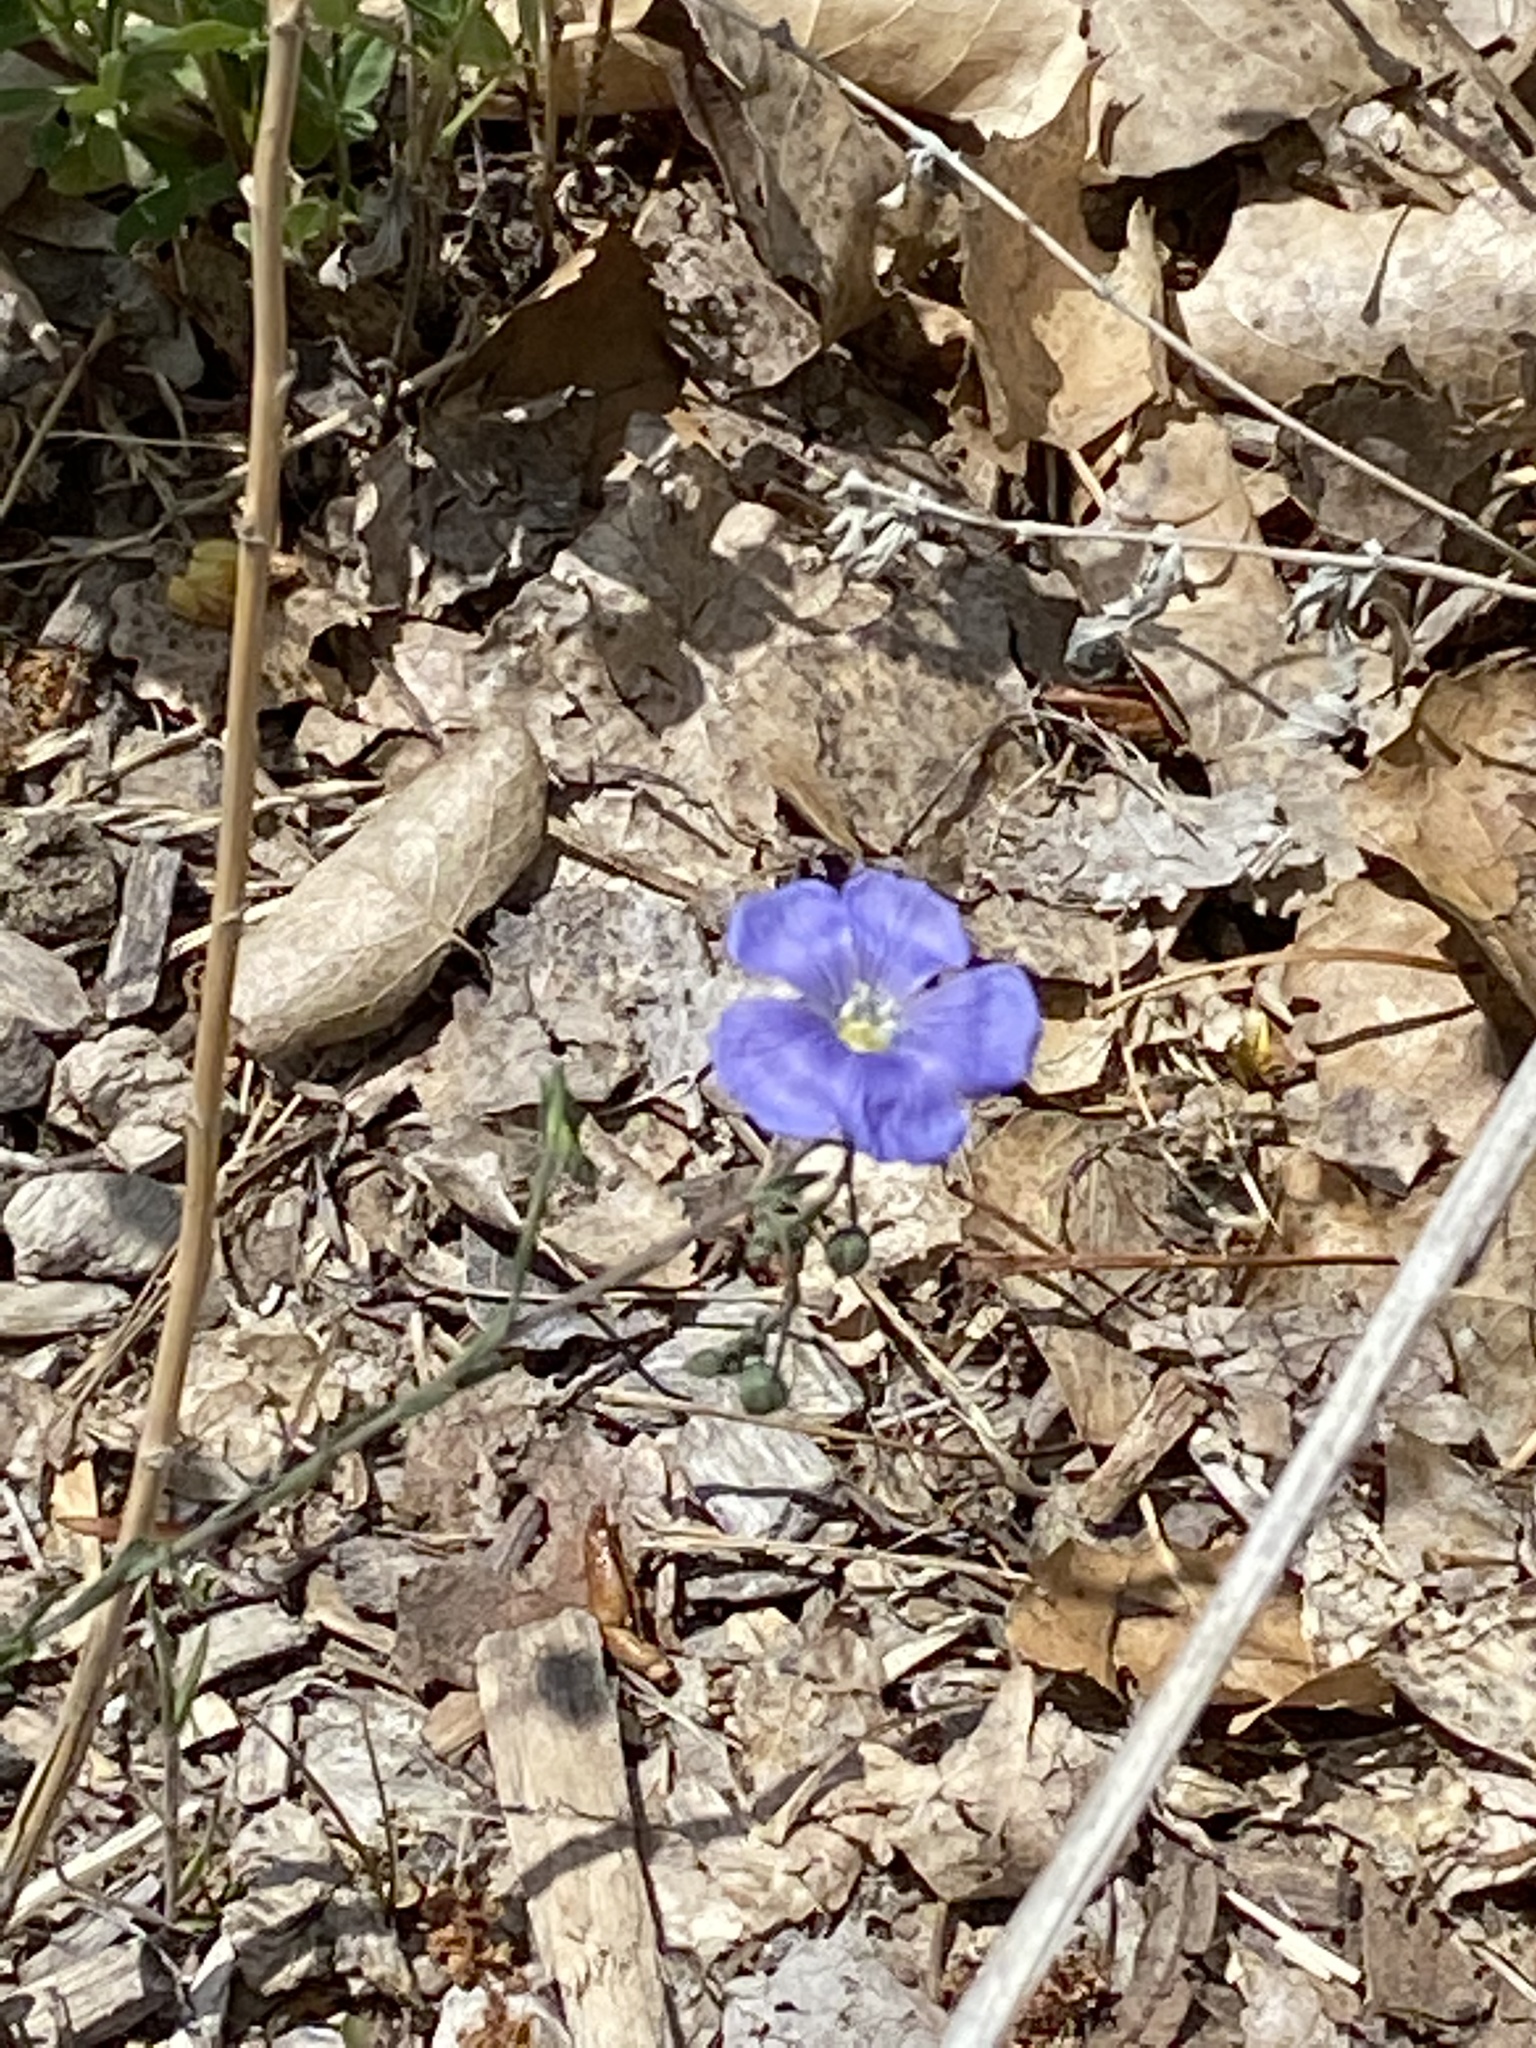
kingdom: Plantae
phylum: Tracheophyta
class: Magnoliopsida
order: Malpighiales
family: Linaceae
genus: Linum
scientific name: Linum lewisii
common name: Prairie flax
